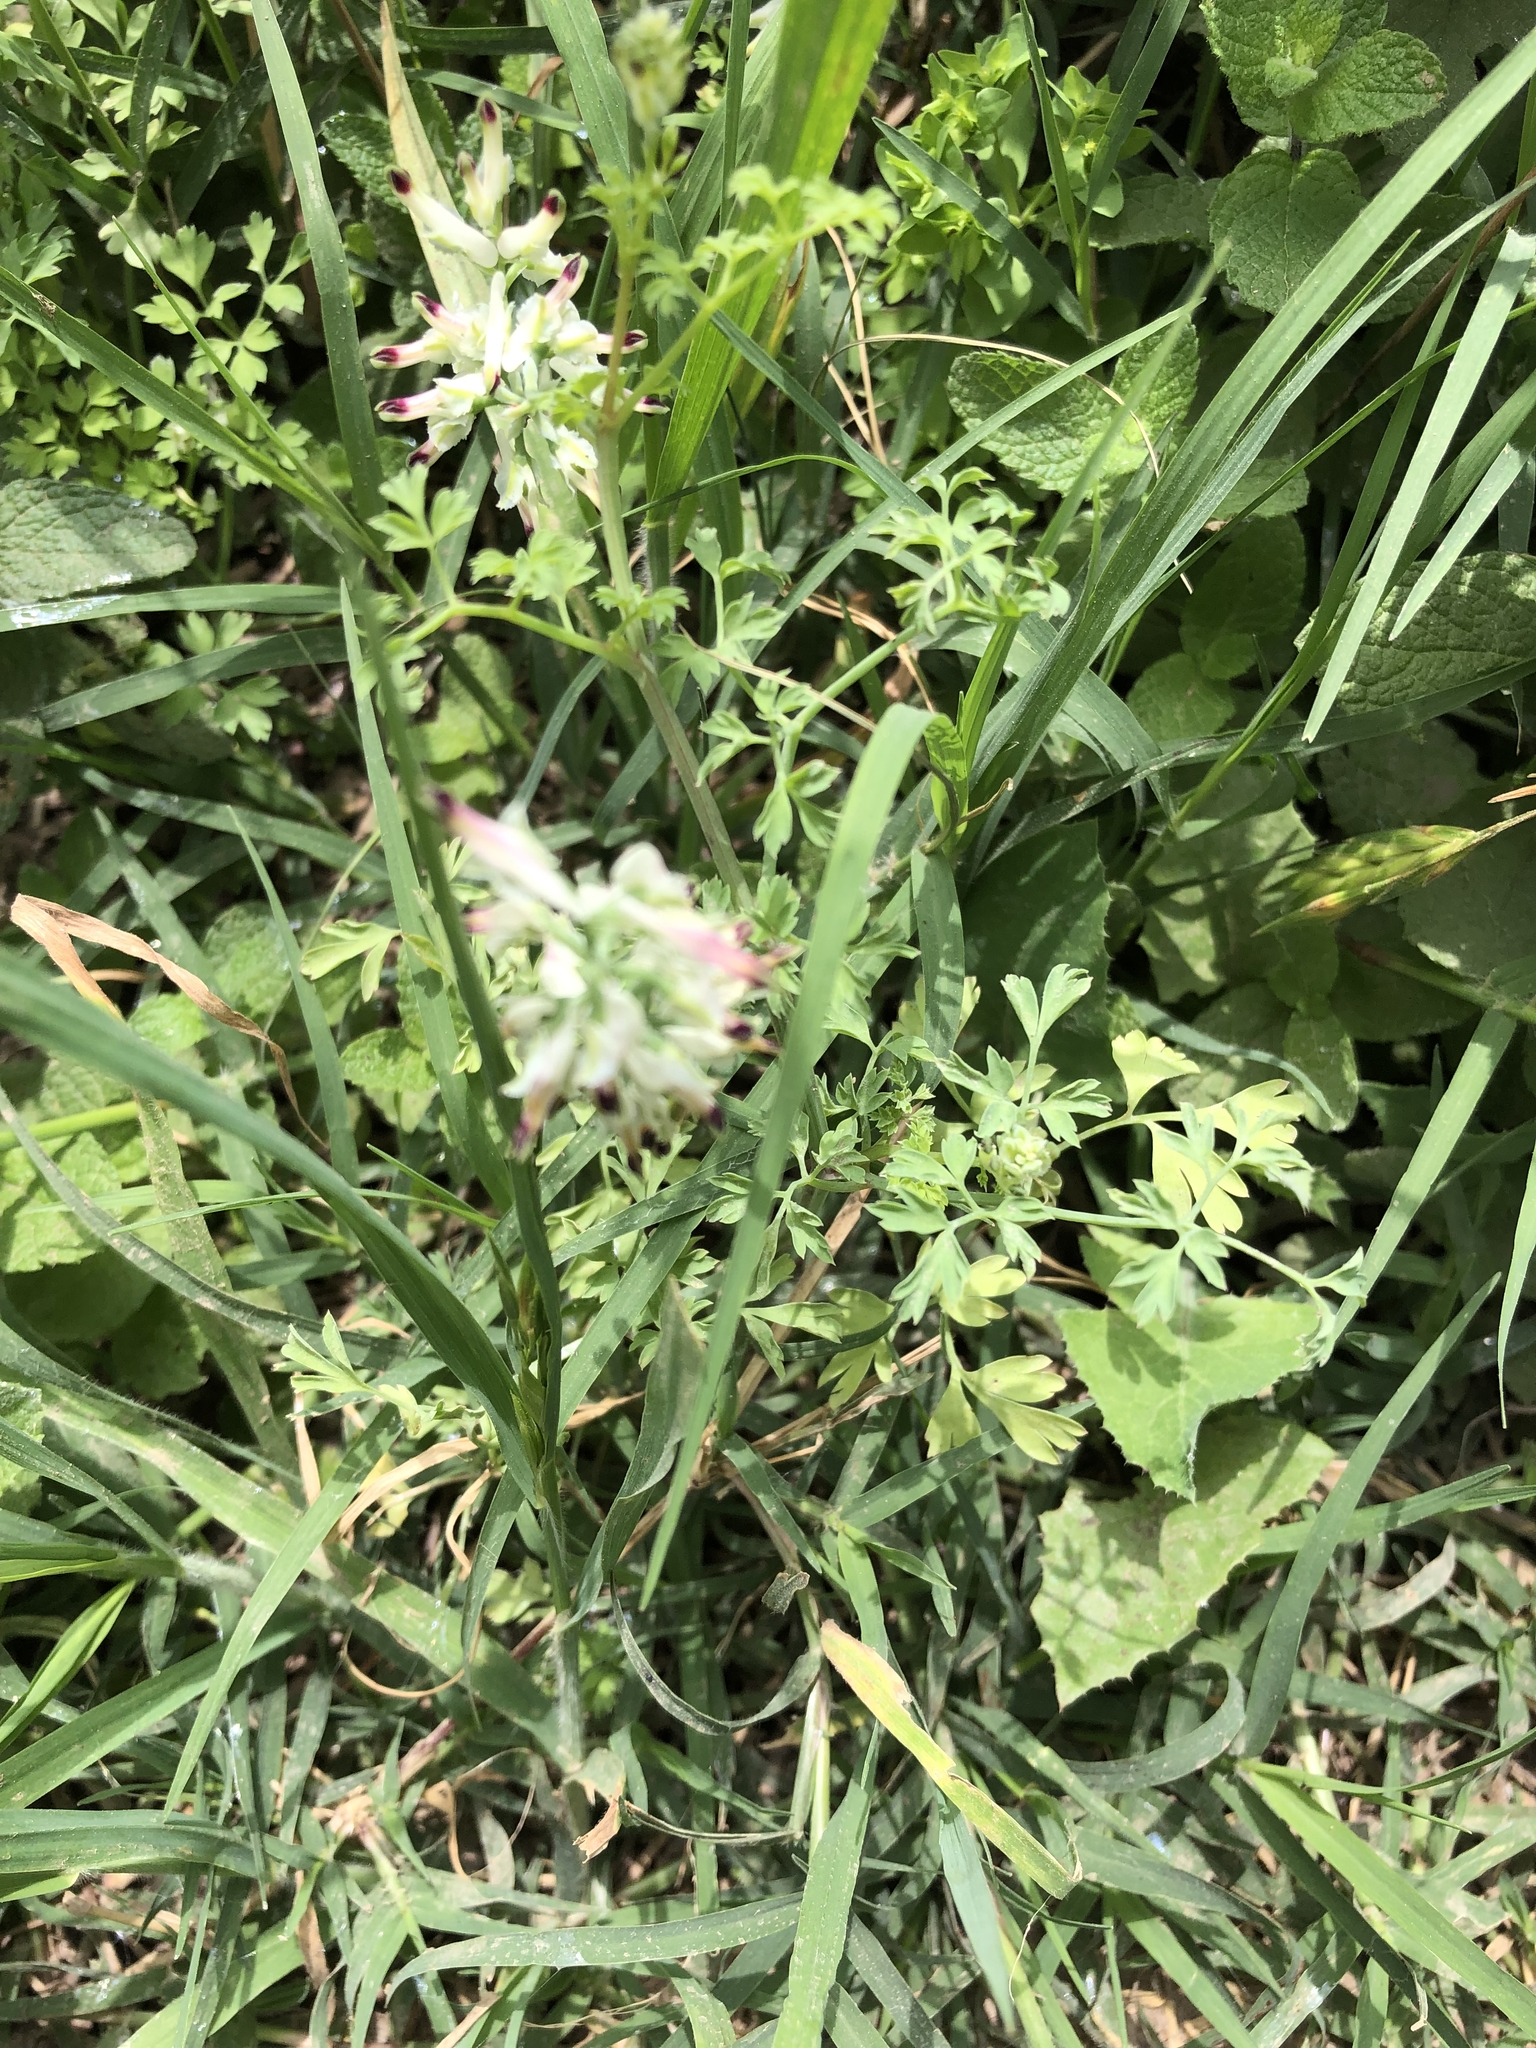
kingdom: Plantae
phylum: Tracheophyta
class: Magnoliopsida
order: Ranunculales
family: Papaveraceae
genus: Fumaria
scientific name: Fumaria capreolata
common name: White ramping-fumitory
